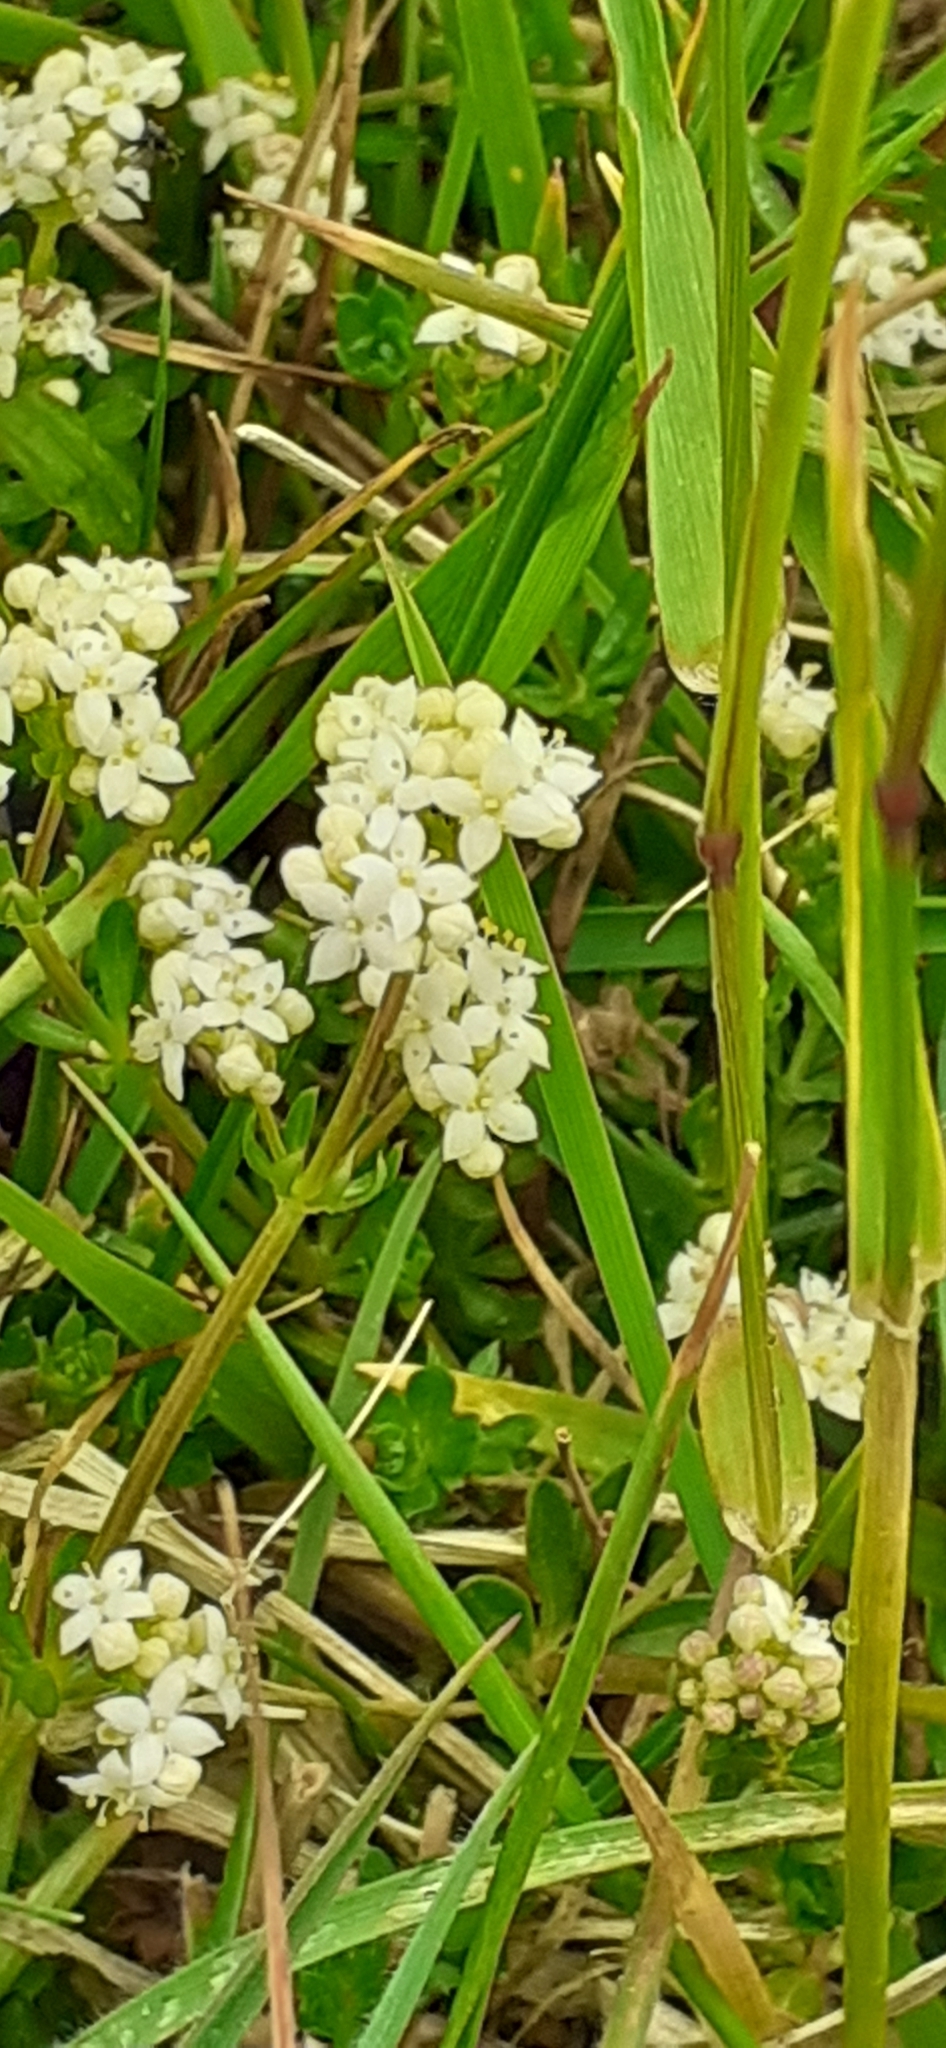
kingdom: Plantae
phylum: Tracheophyta
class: Magnoliopsida
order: Gentianales
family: Rubiaceae
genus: Galium
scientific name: Galium saxatile
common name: Heath bedstraw
